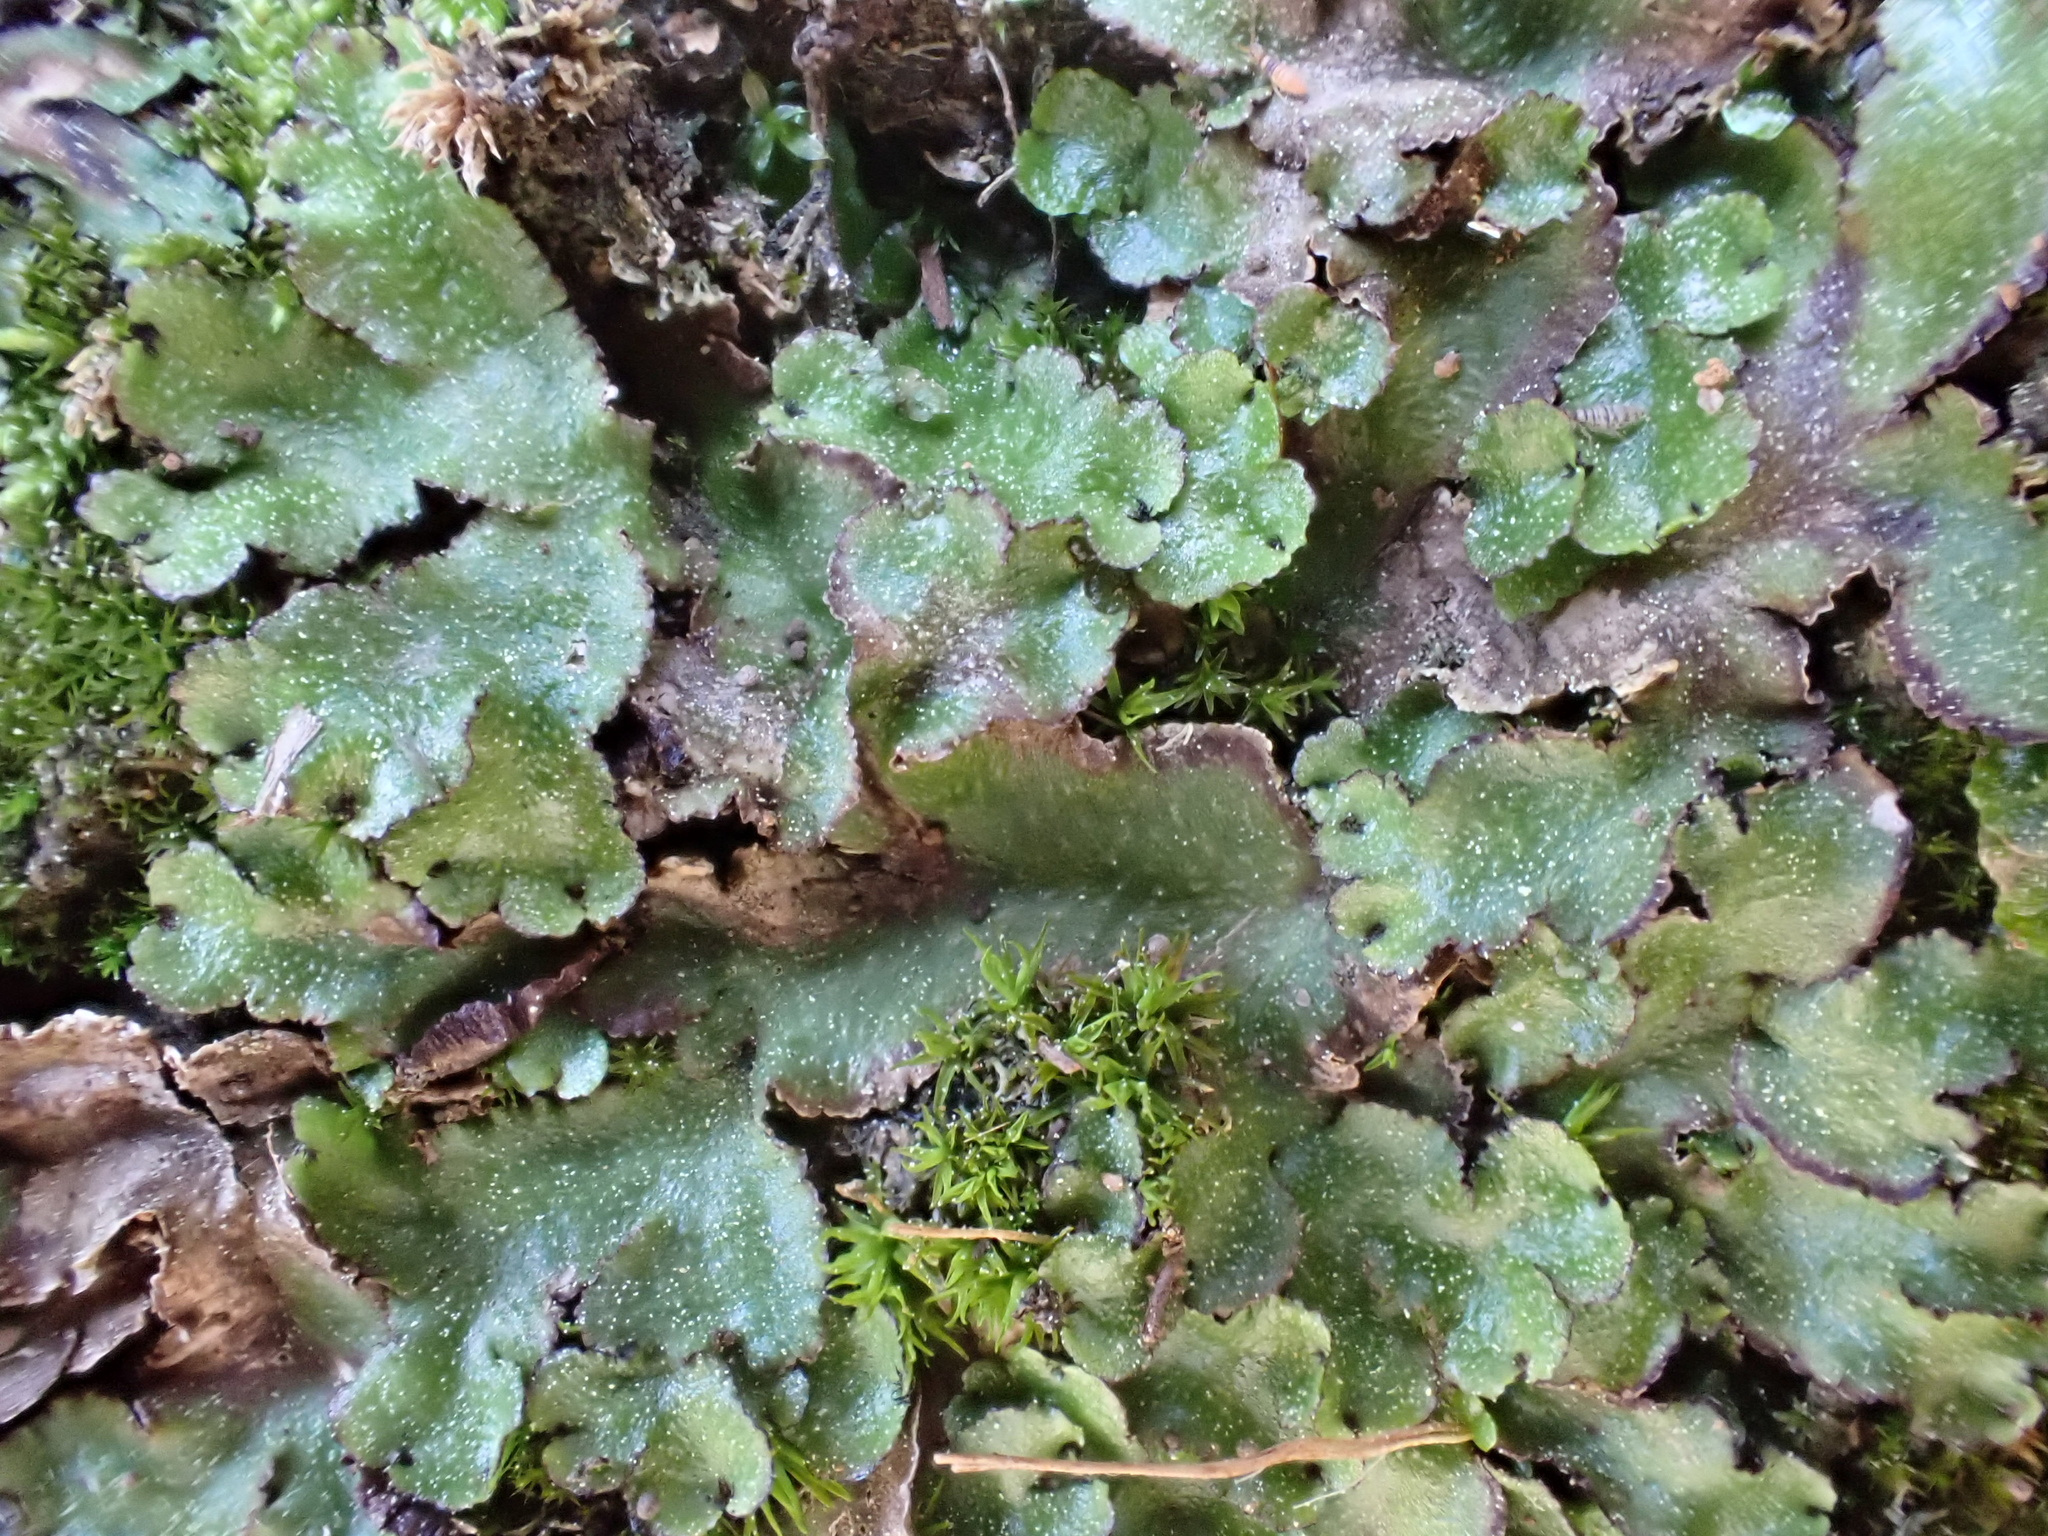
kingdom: Plantae
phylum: Marchantiophyta
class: Marchantiopsida
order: Marchantiales
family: Aytoniaceae
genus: Reboulia
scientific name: Reboulia hemisphaerica
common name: Purple-margined liverwort
